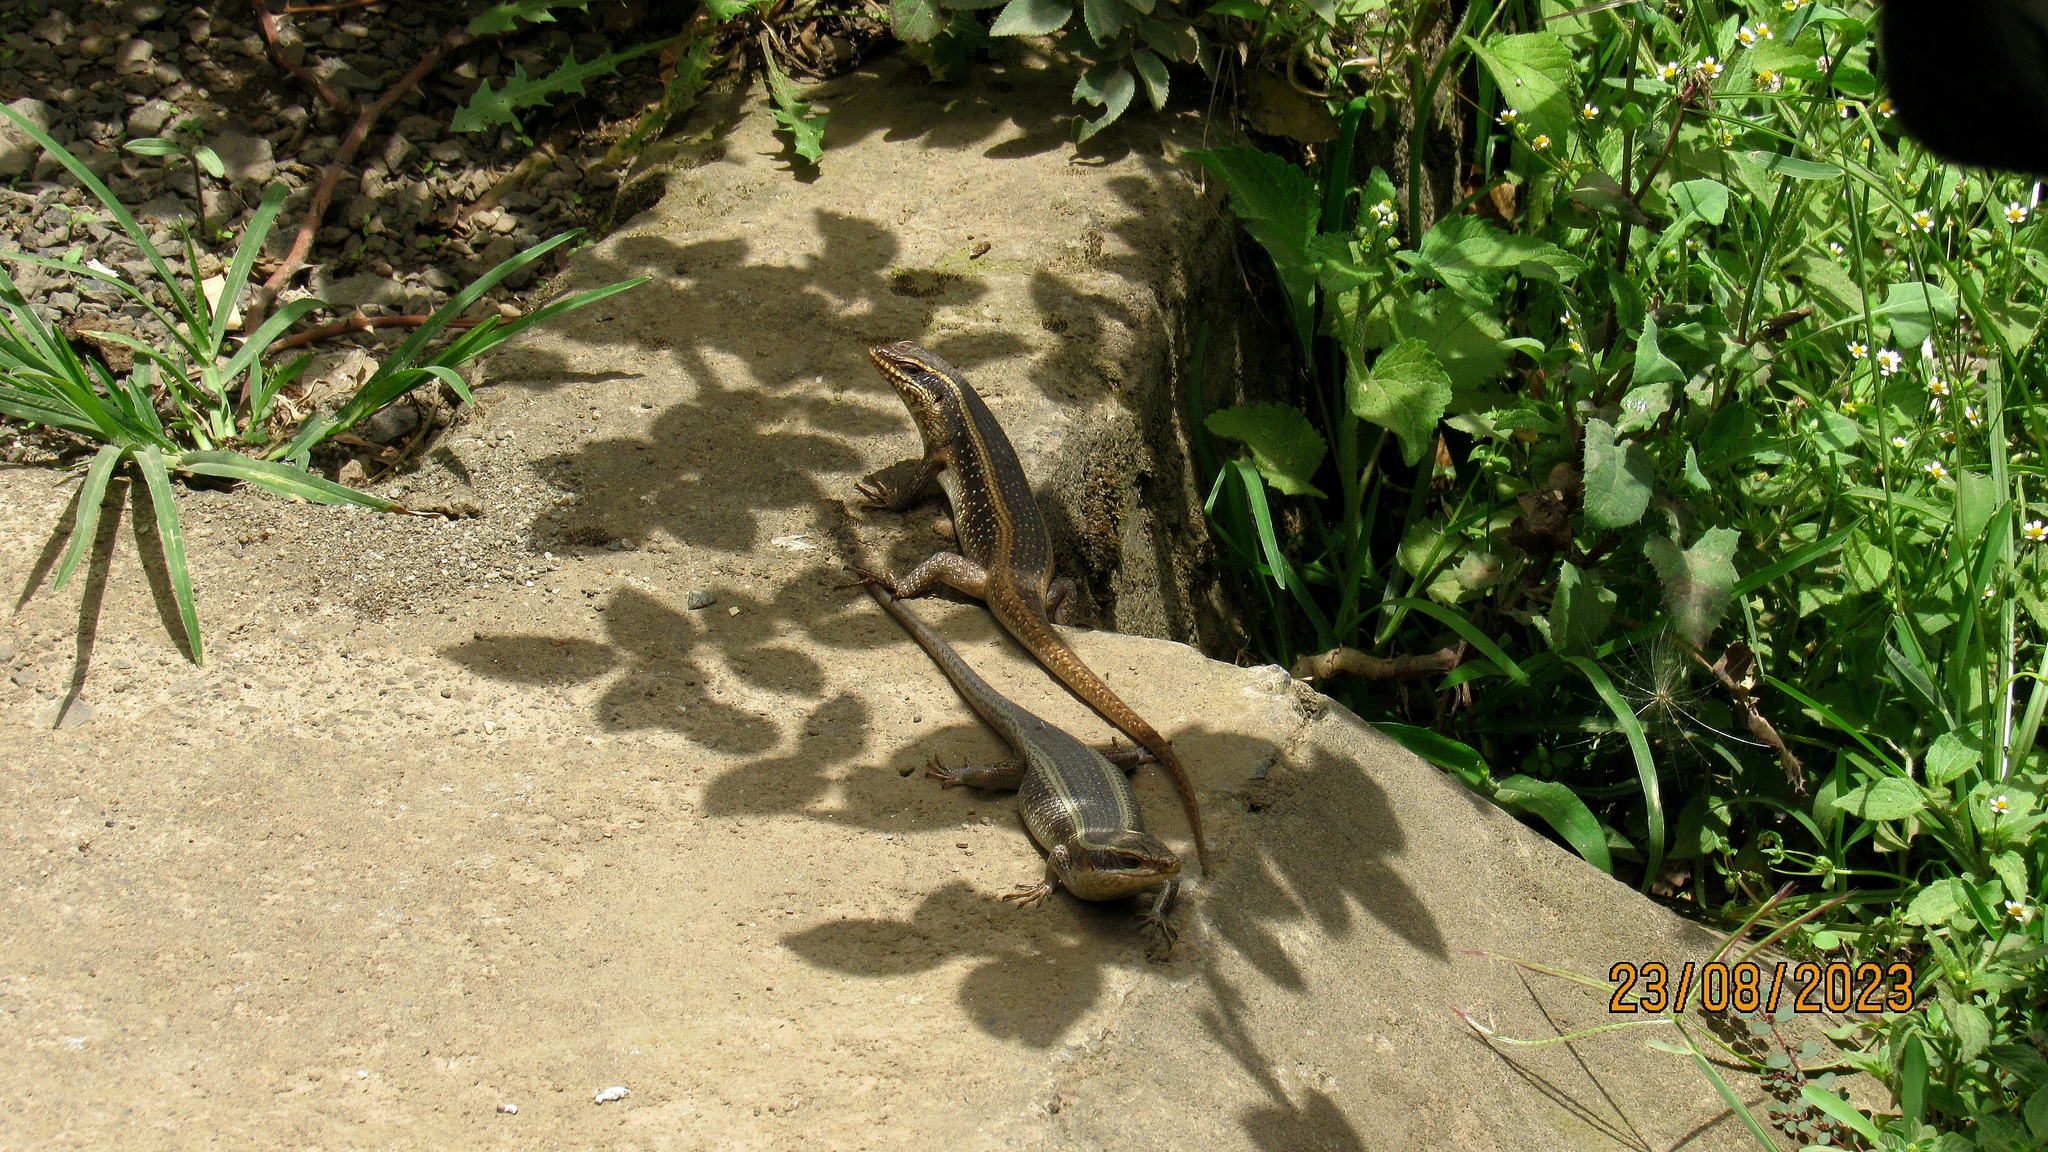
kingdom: Animalia
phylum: Chordata
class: Squamata
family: Scincidae
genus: Trachylepis
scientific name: Trachylepis striata
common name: African striped mabuya
